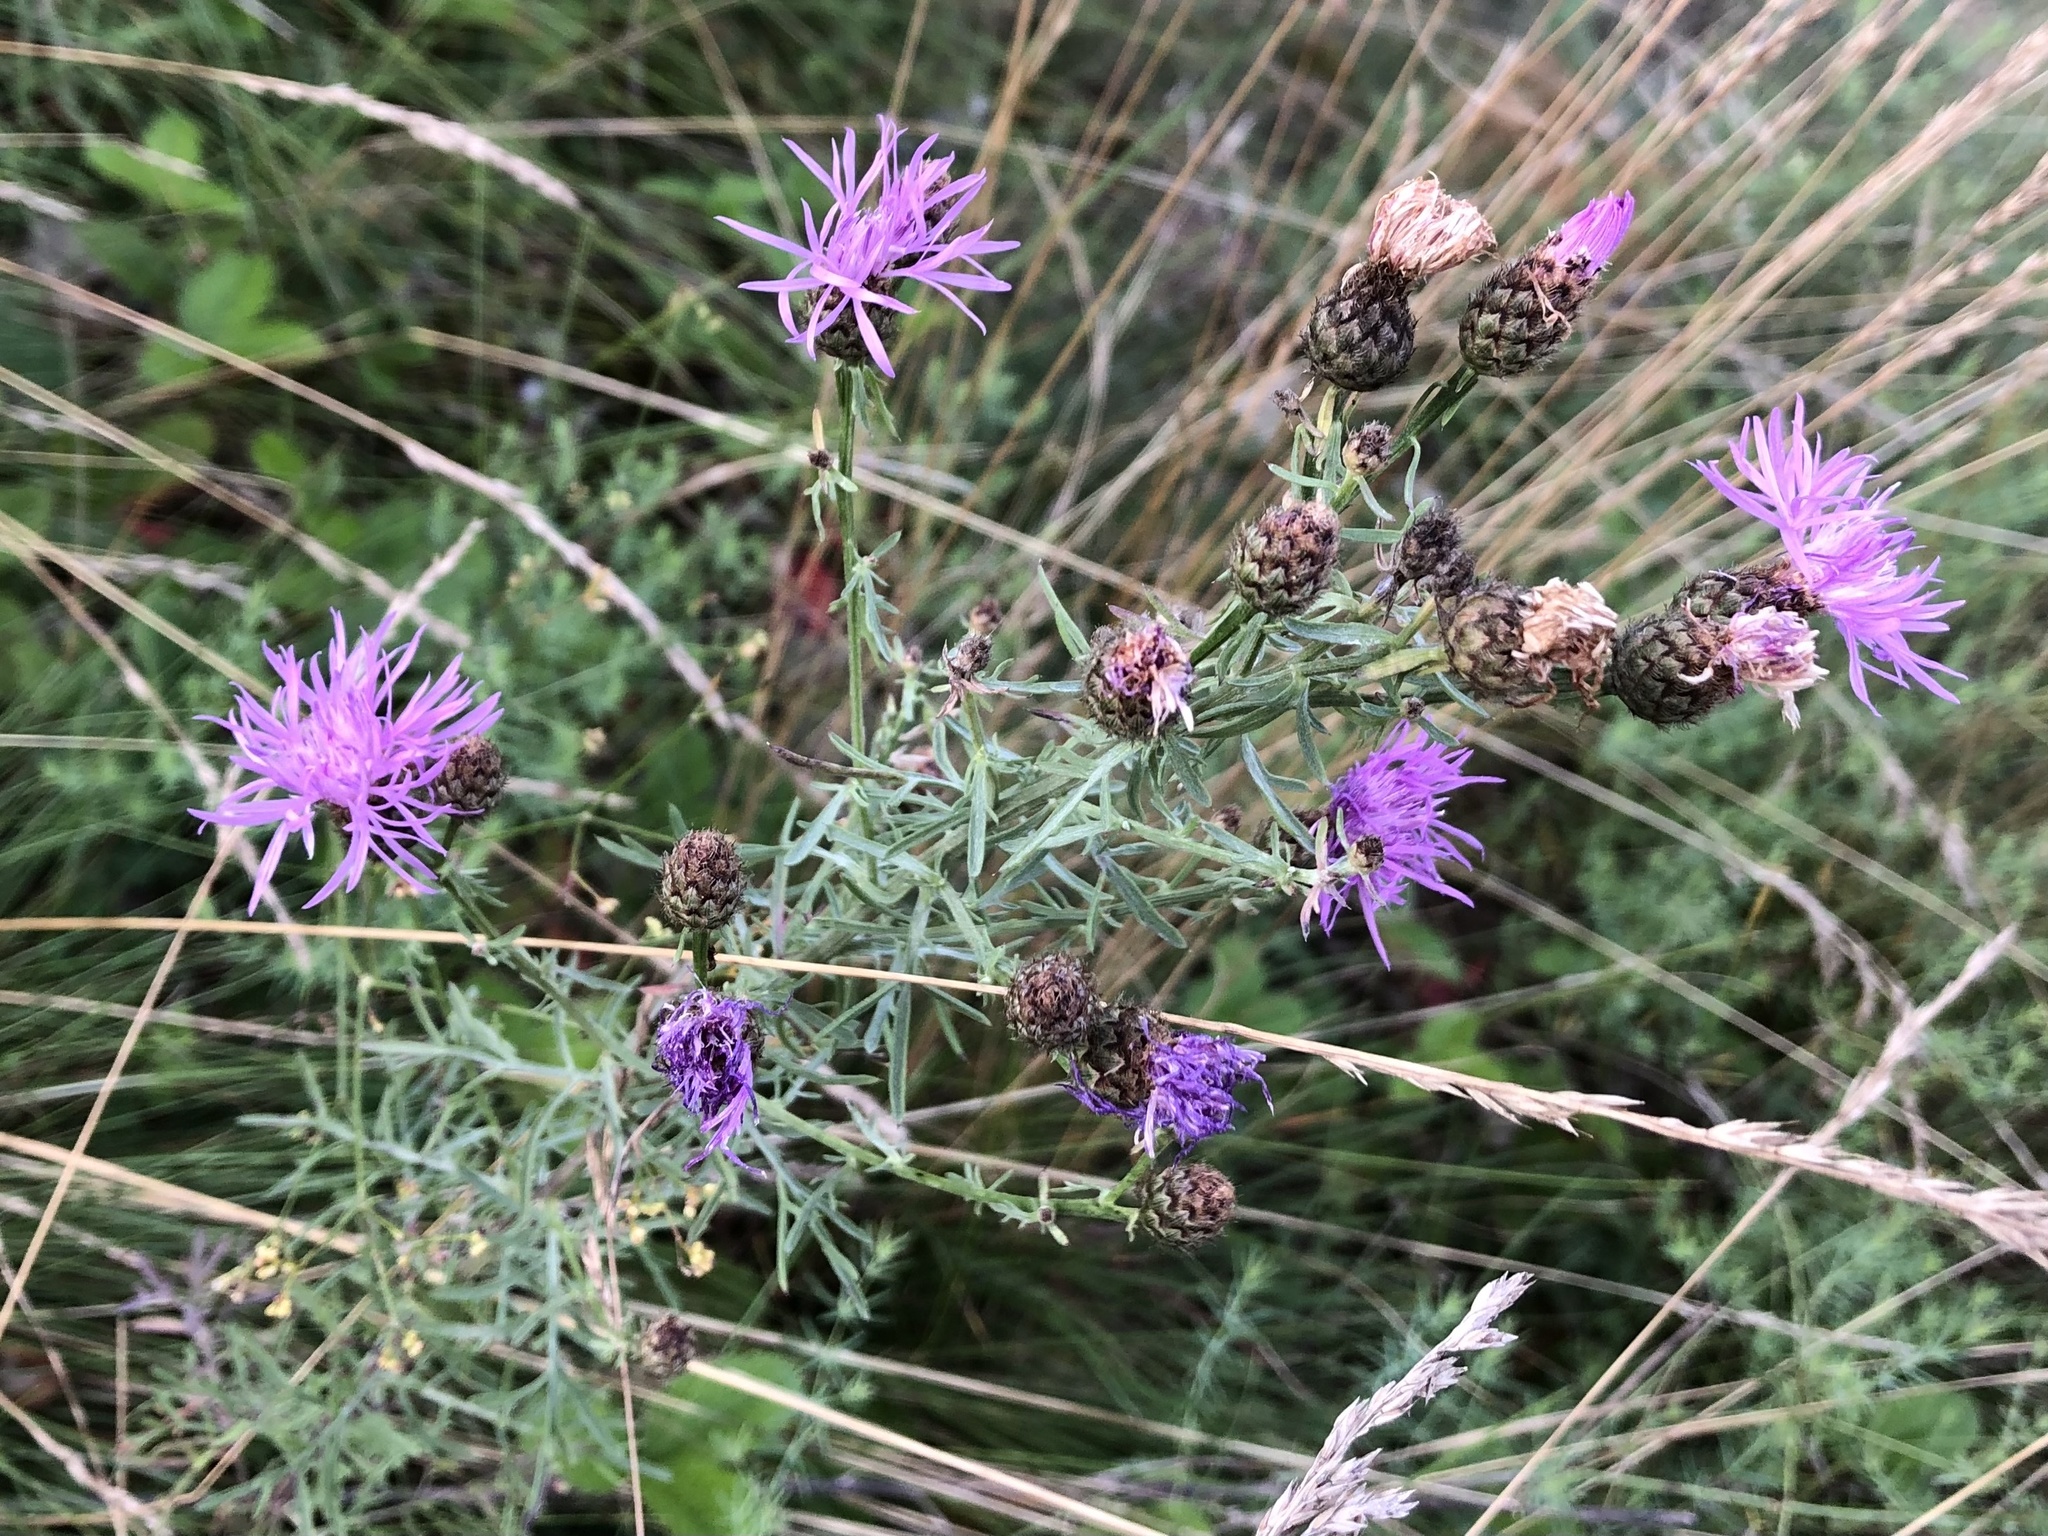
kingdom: Plantae
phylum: Tracheophyta
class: Magnoliopsida
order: Asterales
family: Asteraceae
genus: Centaurea
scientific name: Centaurea stoebe
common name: Spotted knapweed
